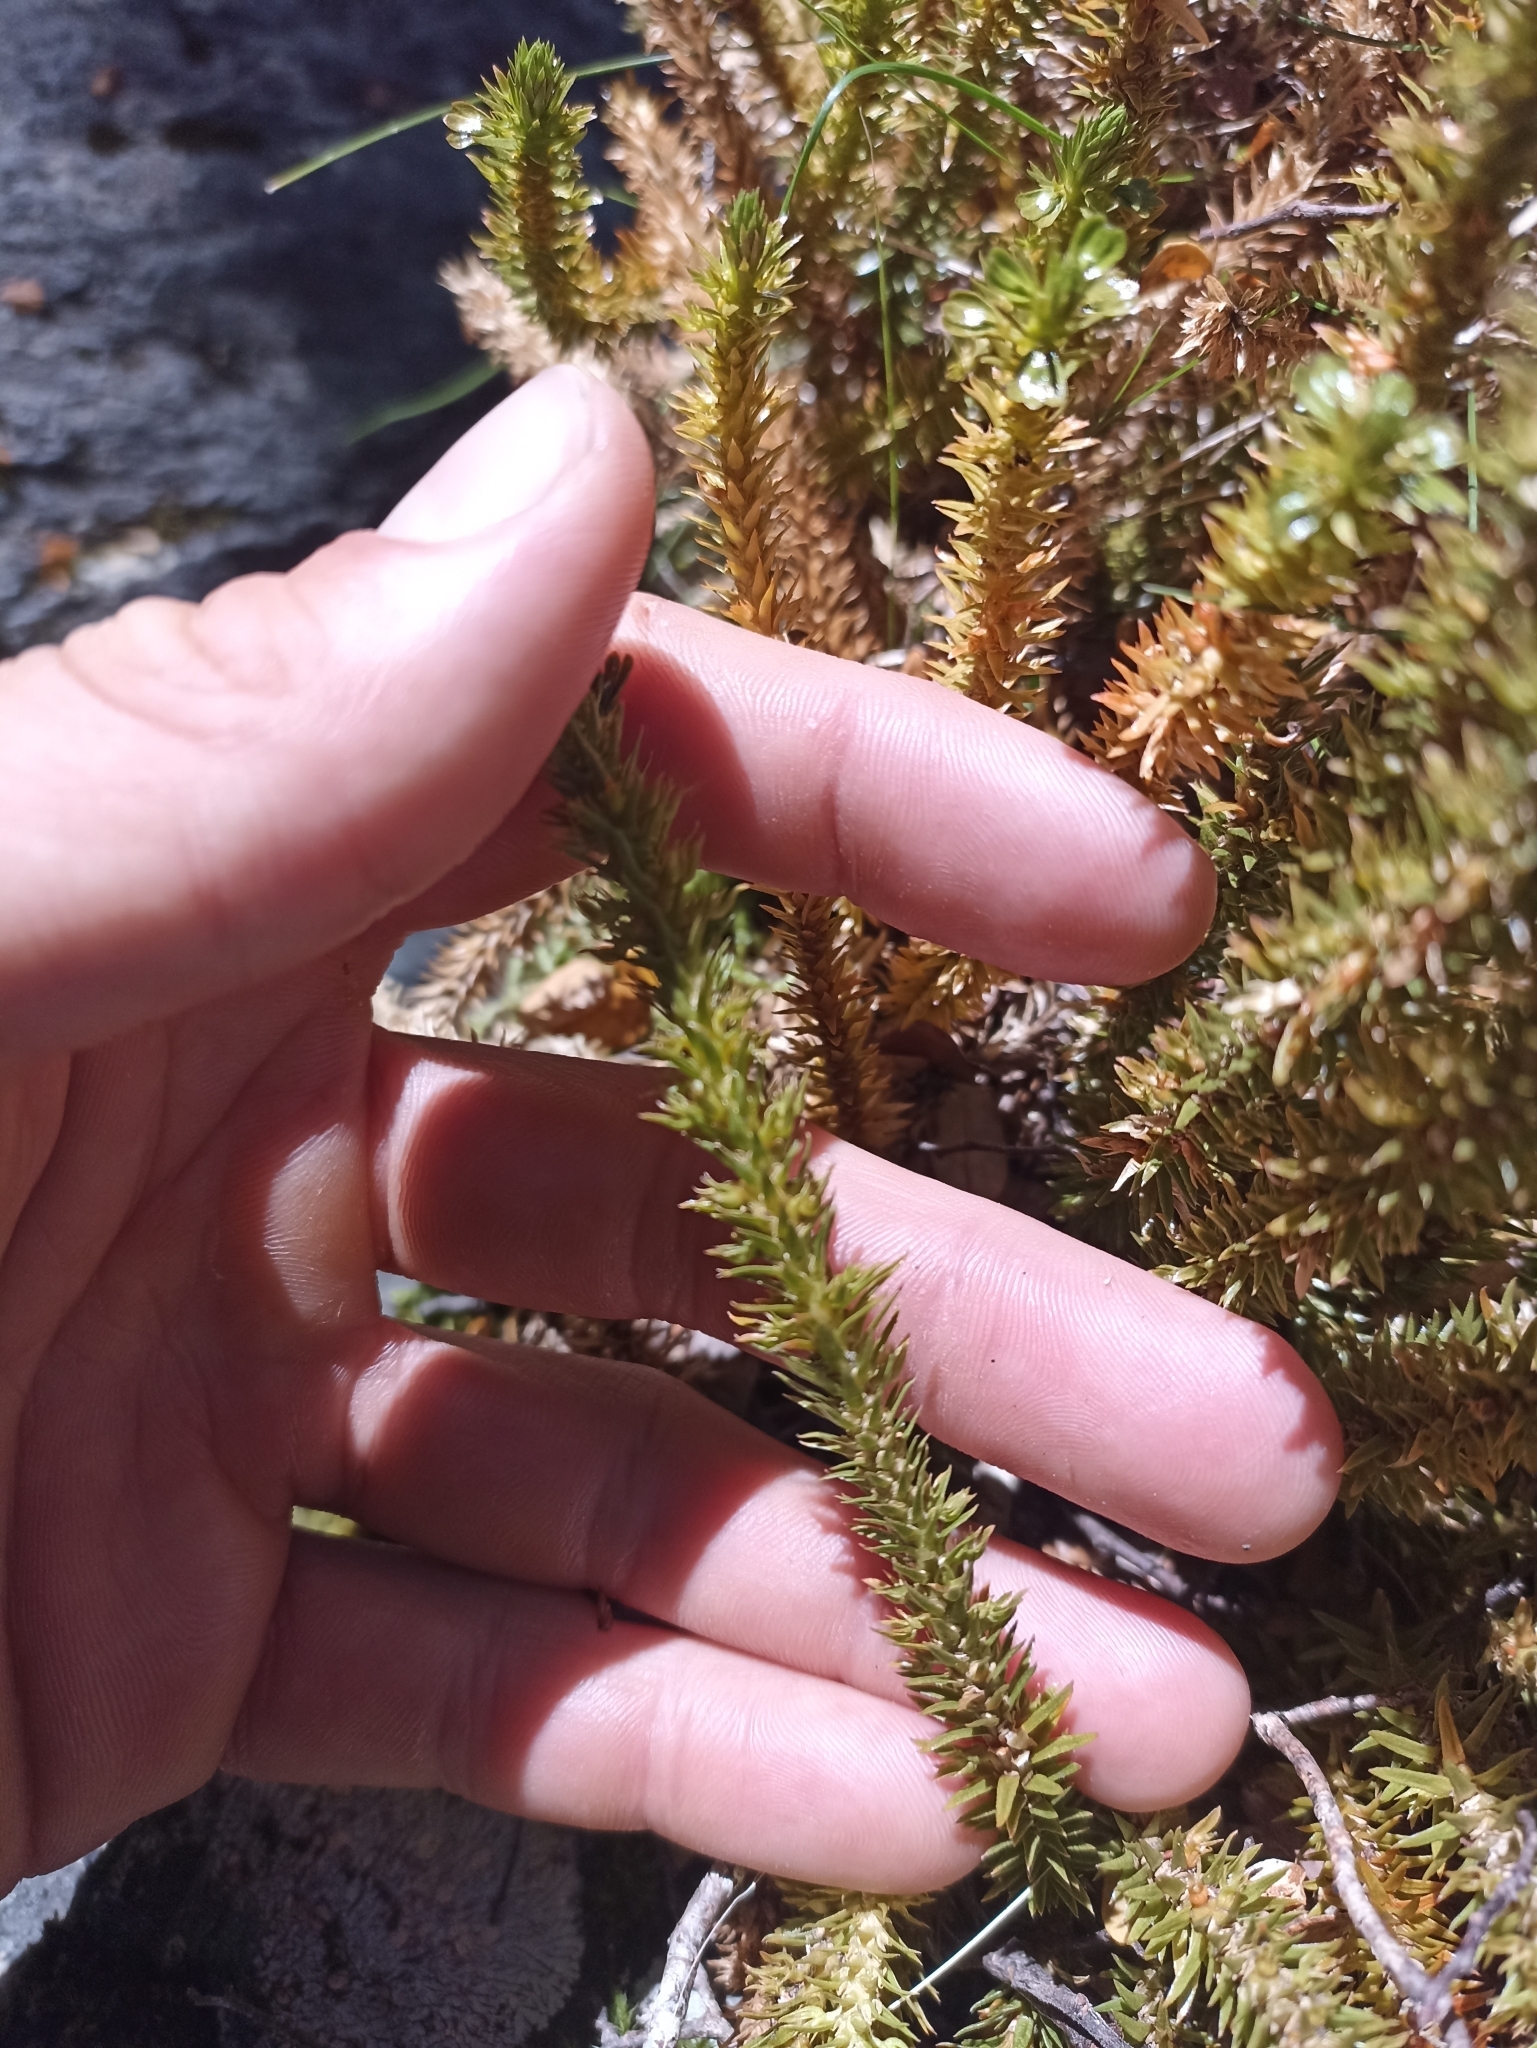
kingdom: Plantae
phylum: Tracheophyta
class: Lycopodiopsida
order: Lycopodiales
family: Lycopodiaceae
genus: Huperzia
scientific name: Huperzia australiana
